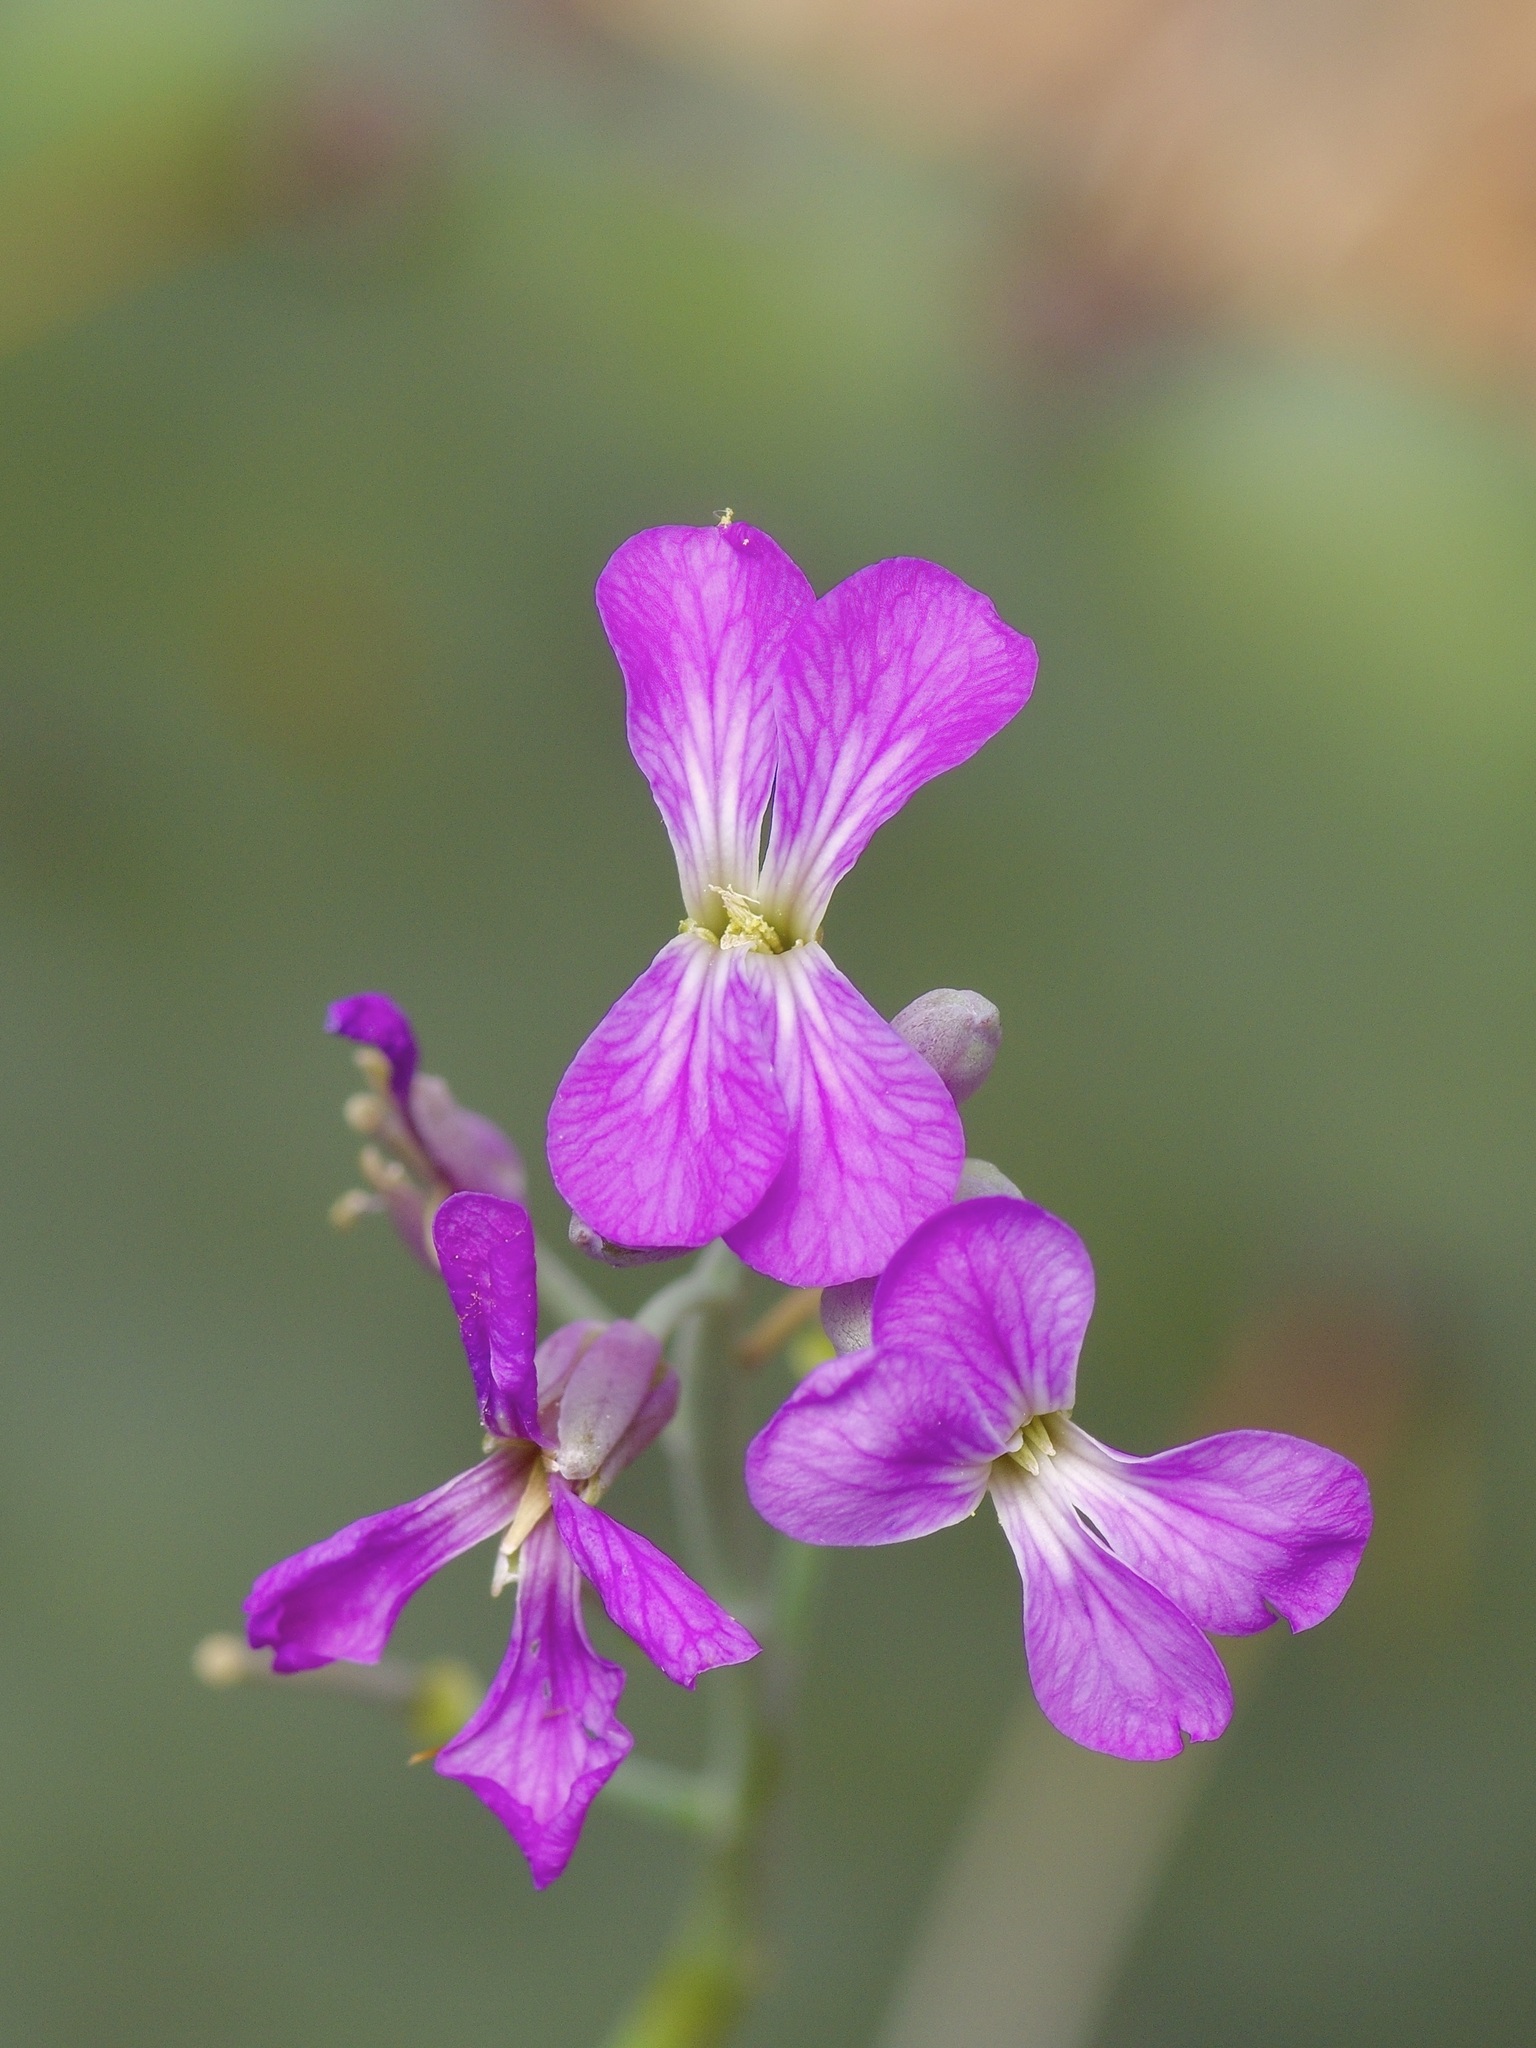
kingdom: Plantae
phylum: Tracheophyta
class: Magnoliopsida
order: Brassicales
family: Brassicaceae
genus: Hesperidanthus
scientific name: Hesperidanthus linearifolius
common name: Slim-leaf plains mustard
